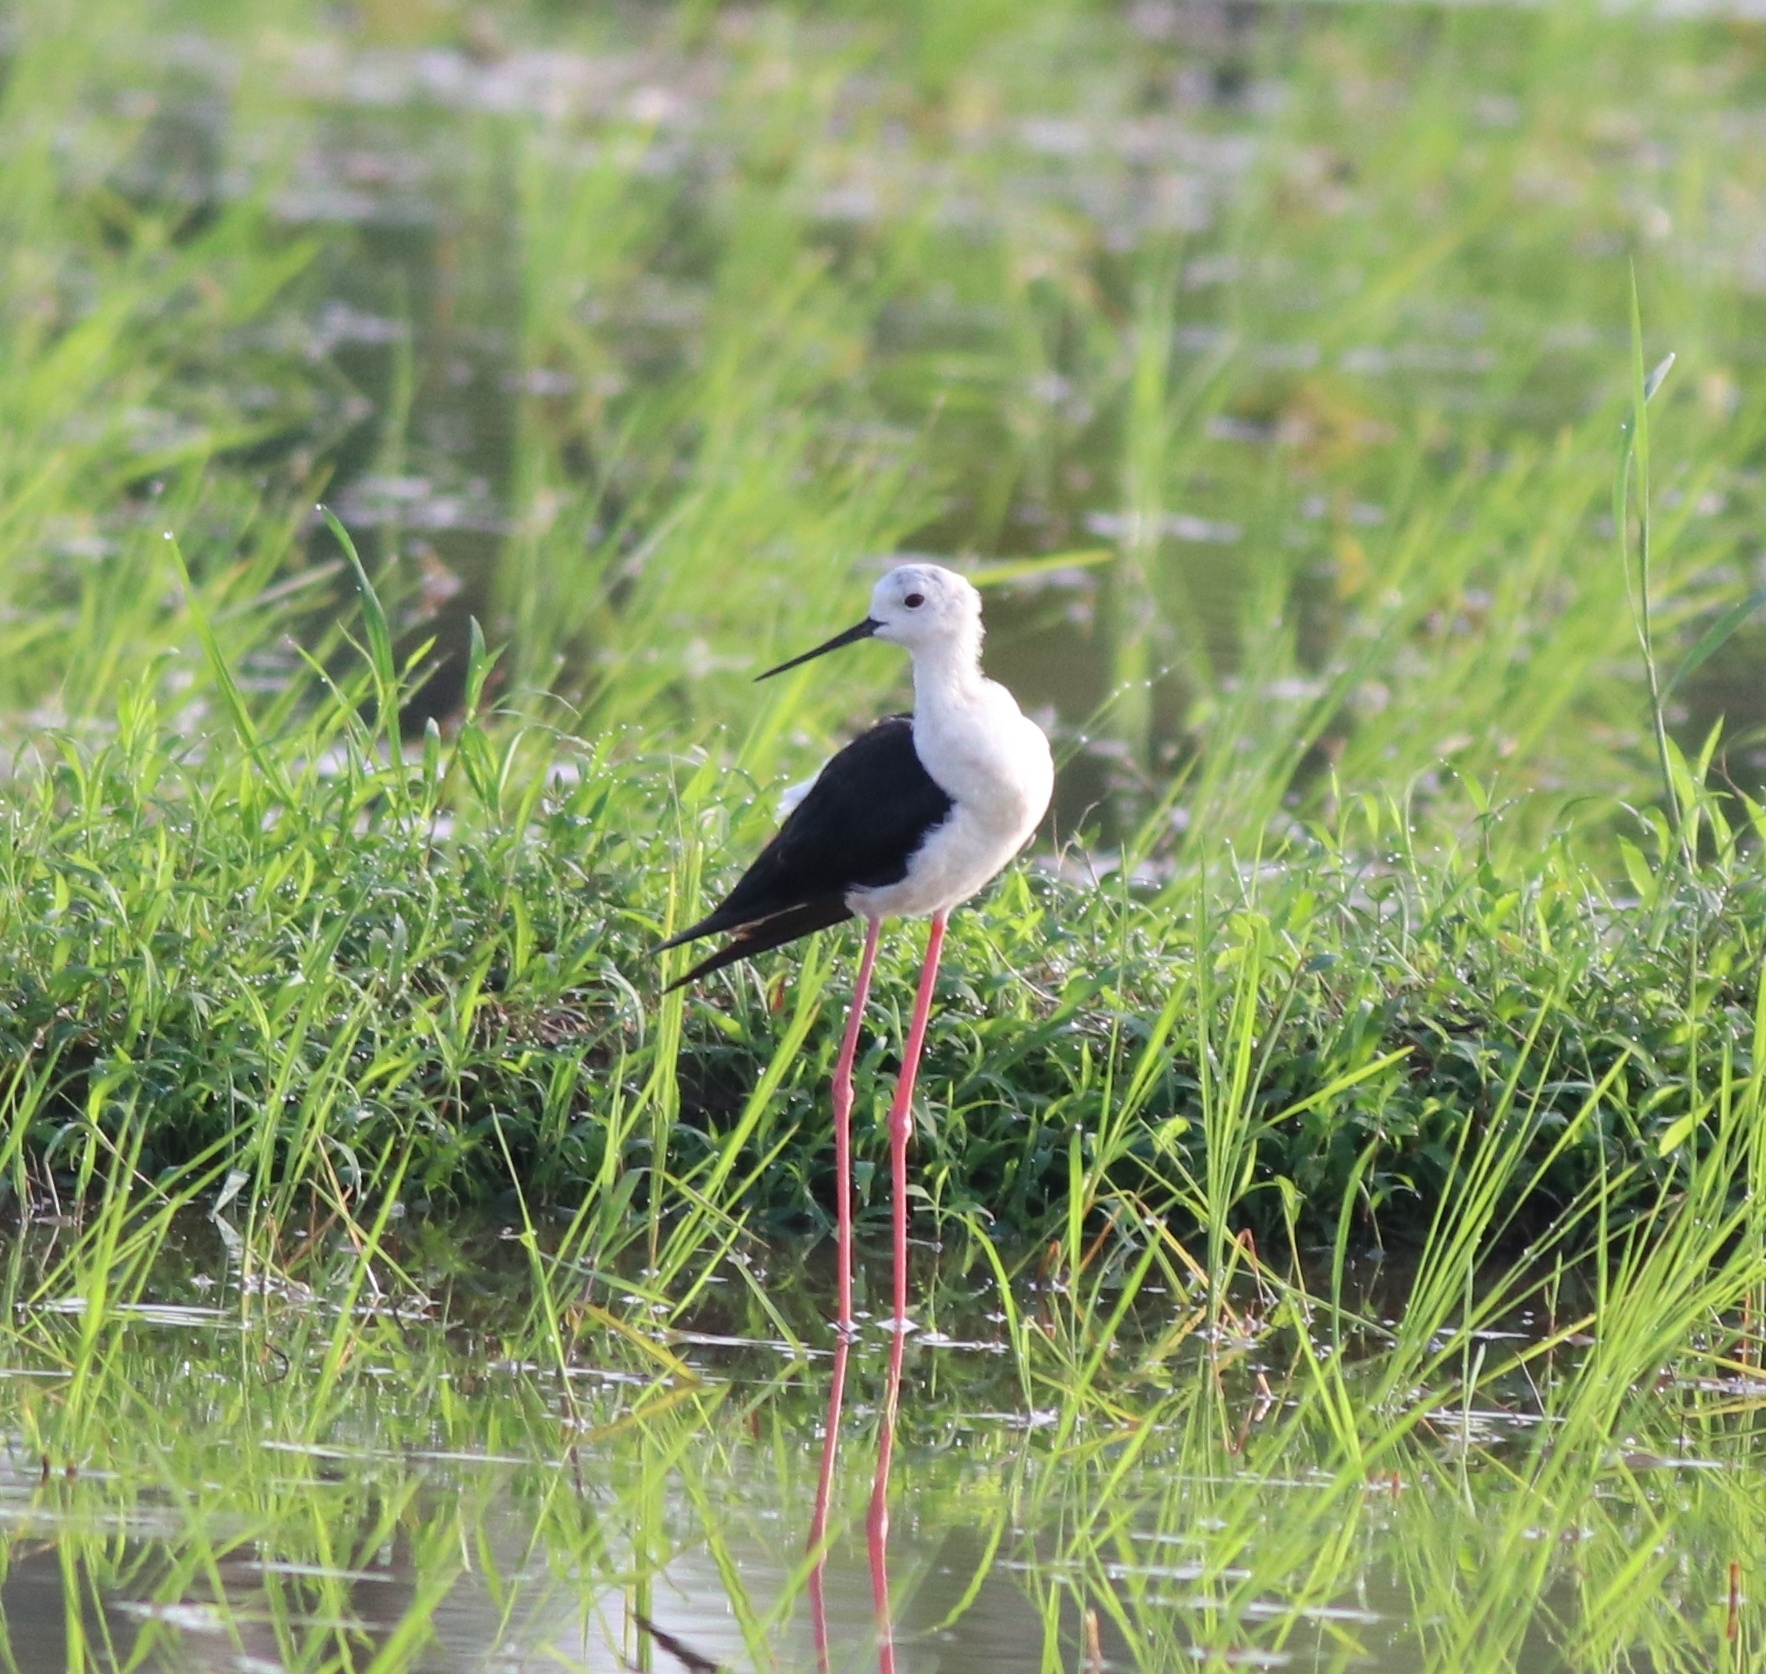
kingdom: Animalia
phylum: Chordata
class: Aves
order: Charadriiformes
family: Recurvirostridae
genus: Himantopus
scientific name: Himantopus himantopus
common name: Black-winged stilt
